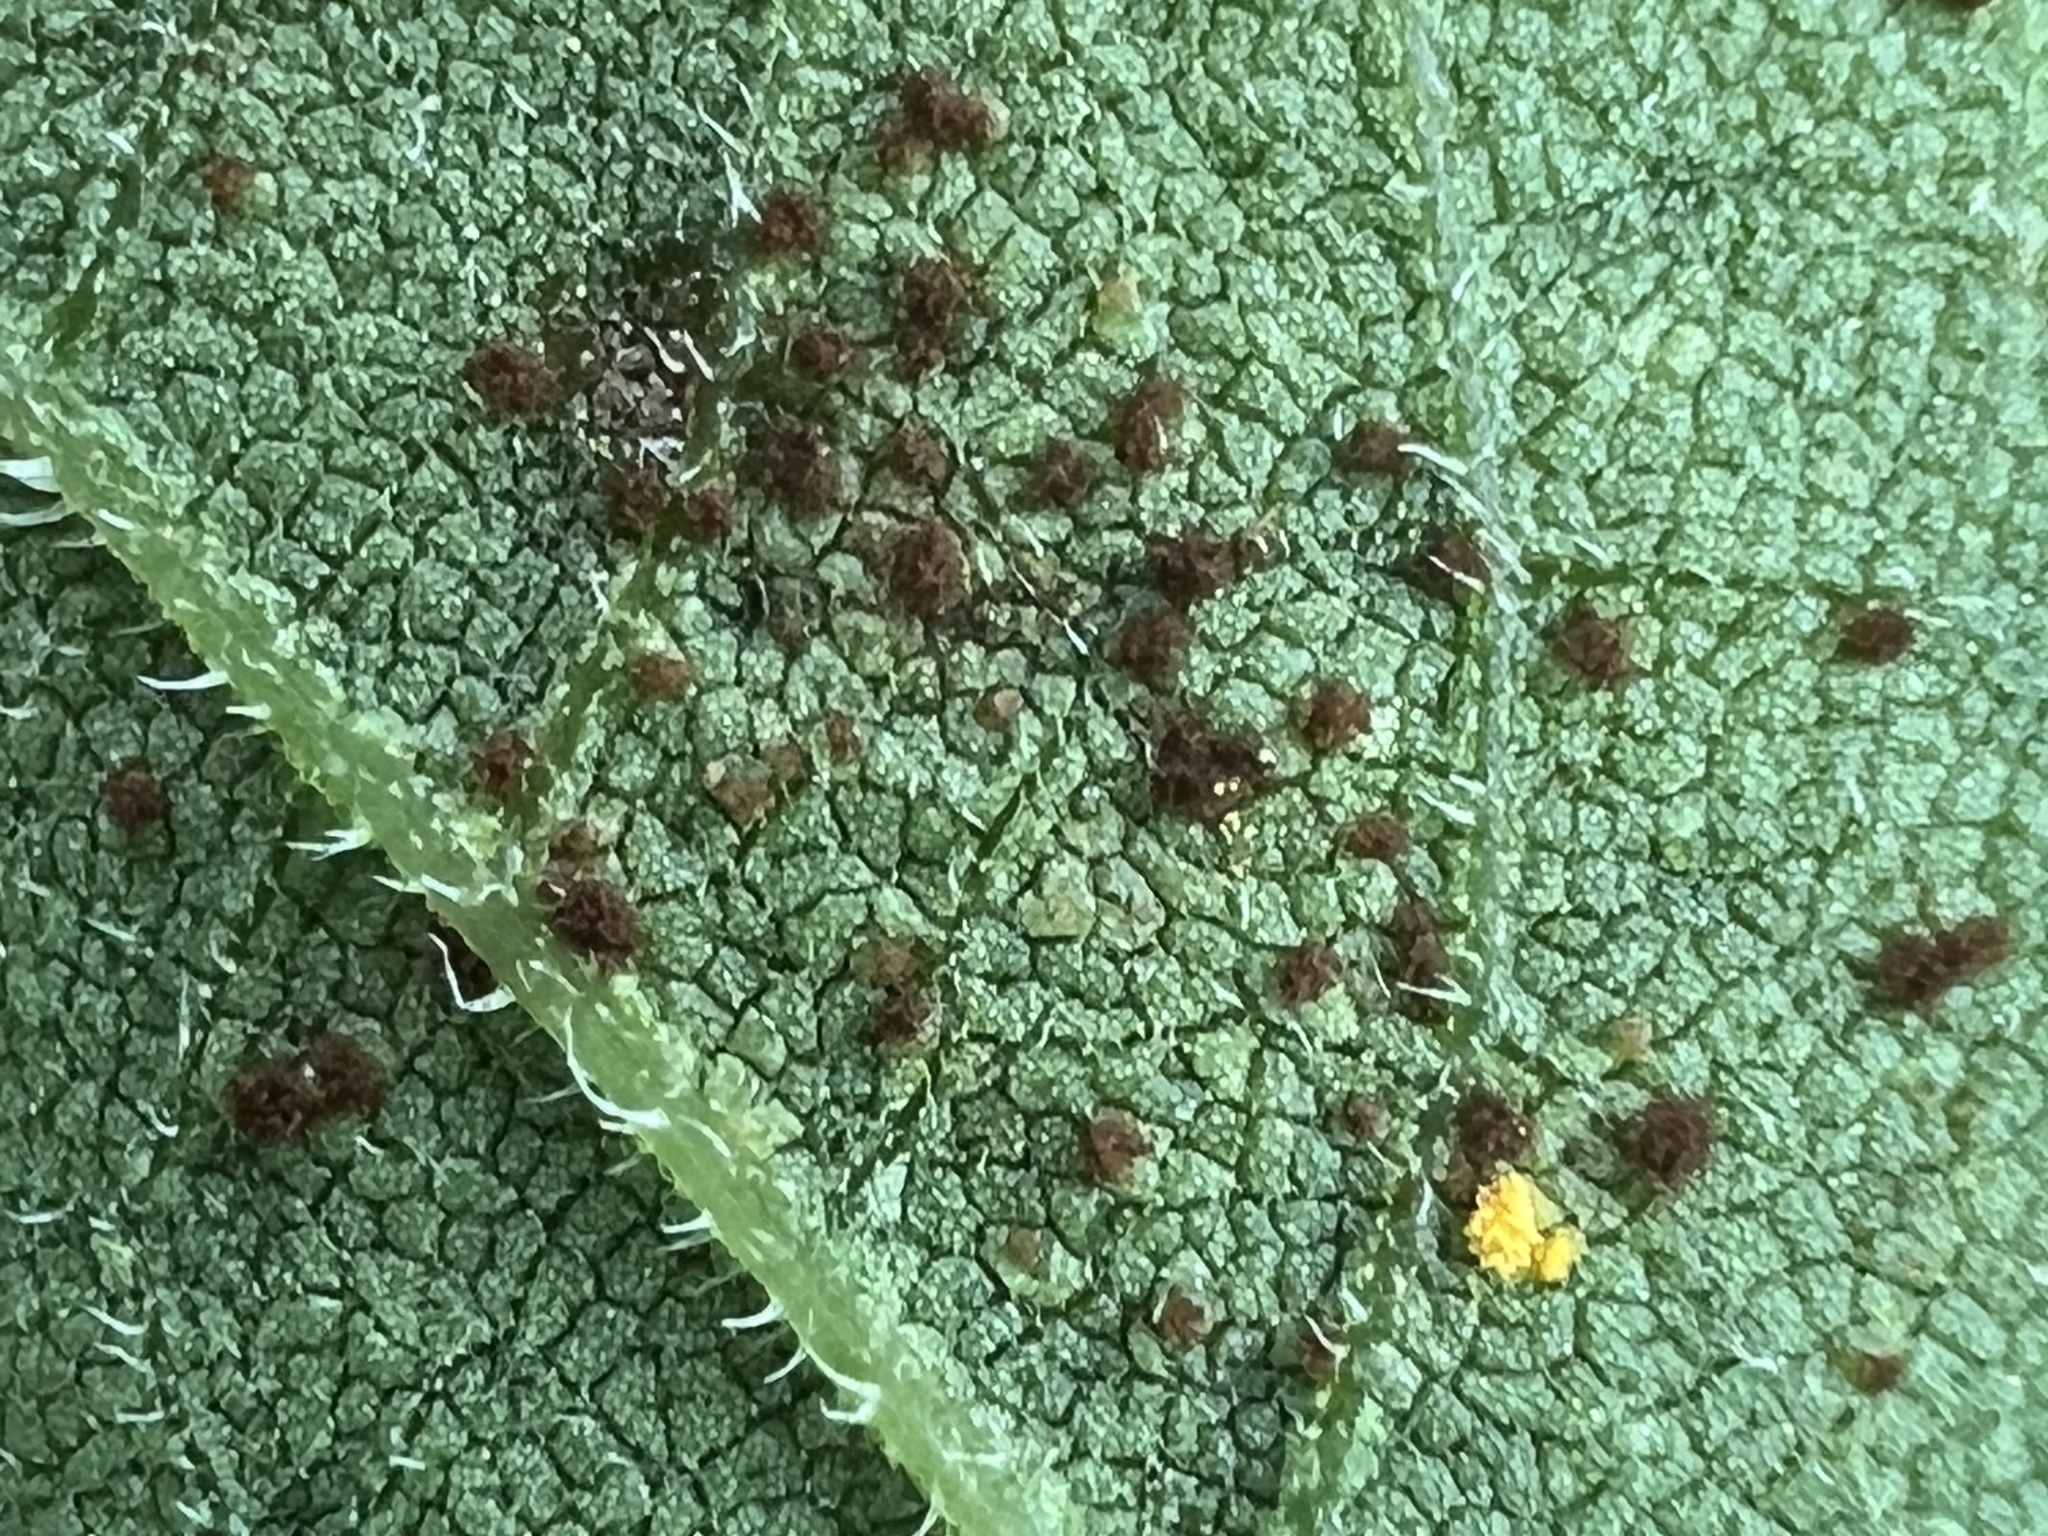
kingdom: Fungi
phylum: Basidiomycota
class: Pucciniomycetes
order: Pucciniales
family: Pucciniaceae
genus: Puccinia
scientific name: Puccinia helianthi-mollis
